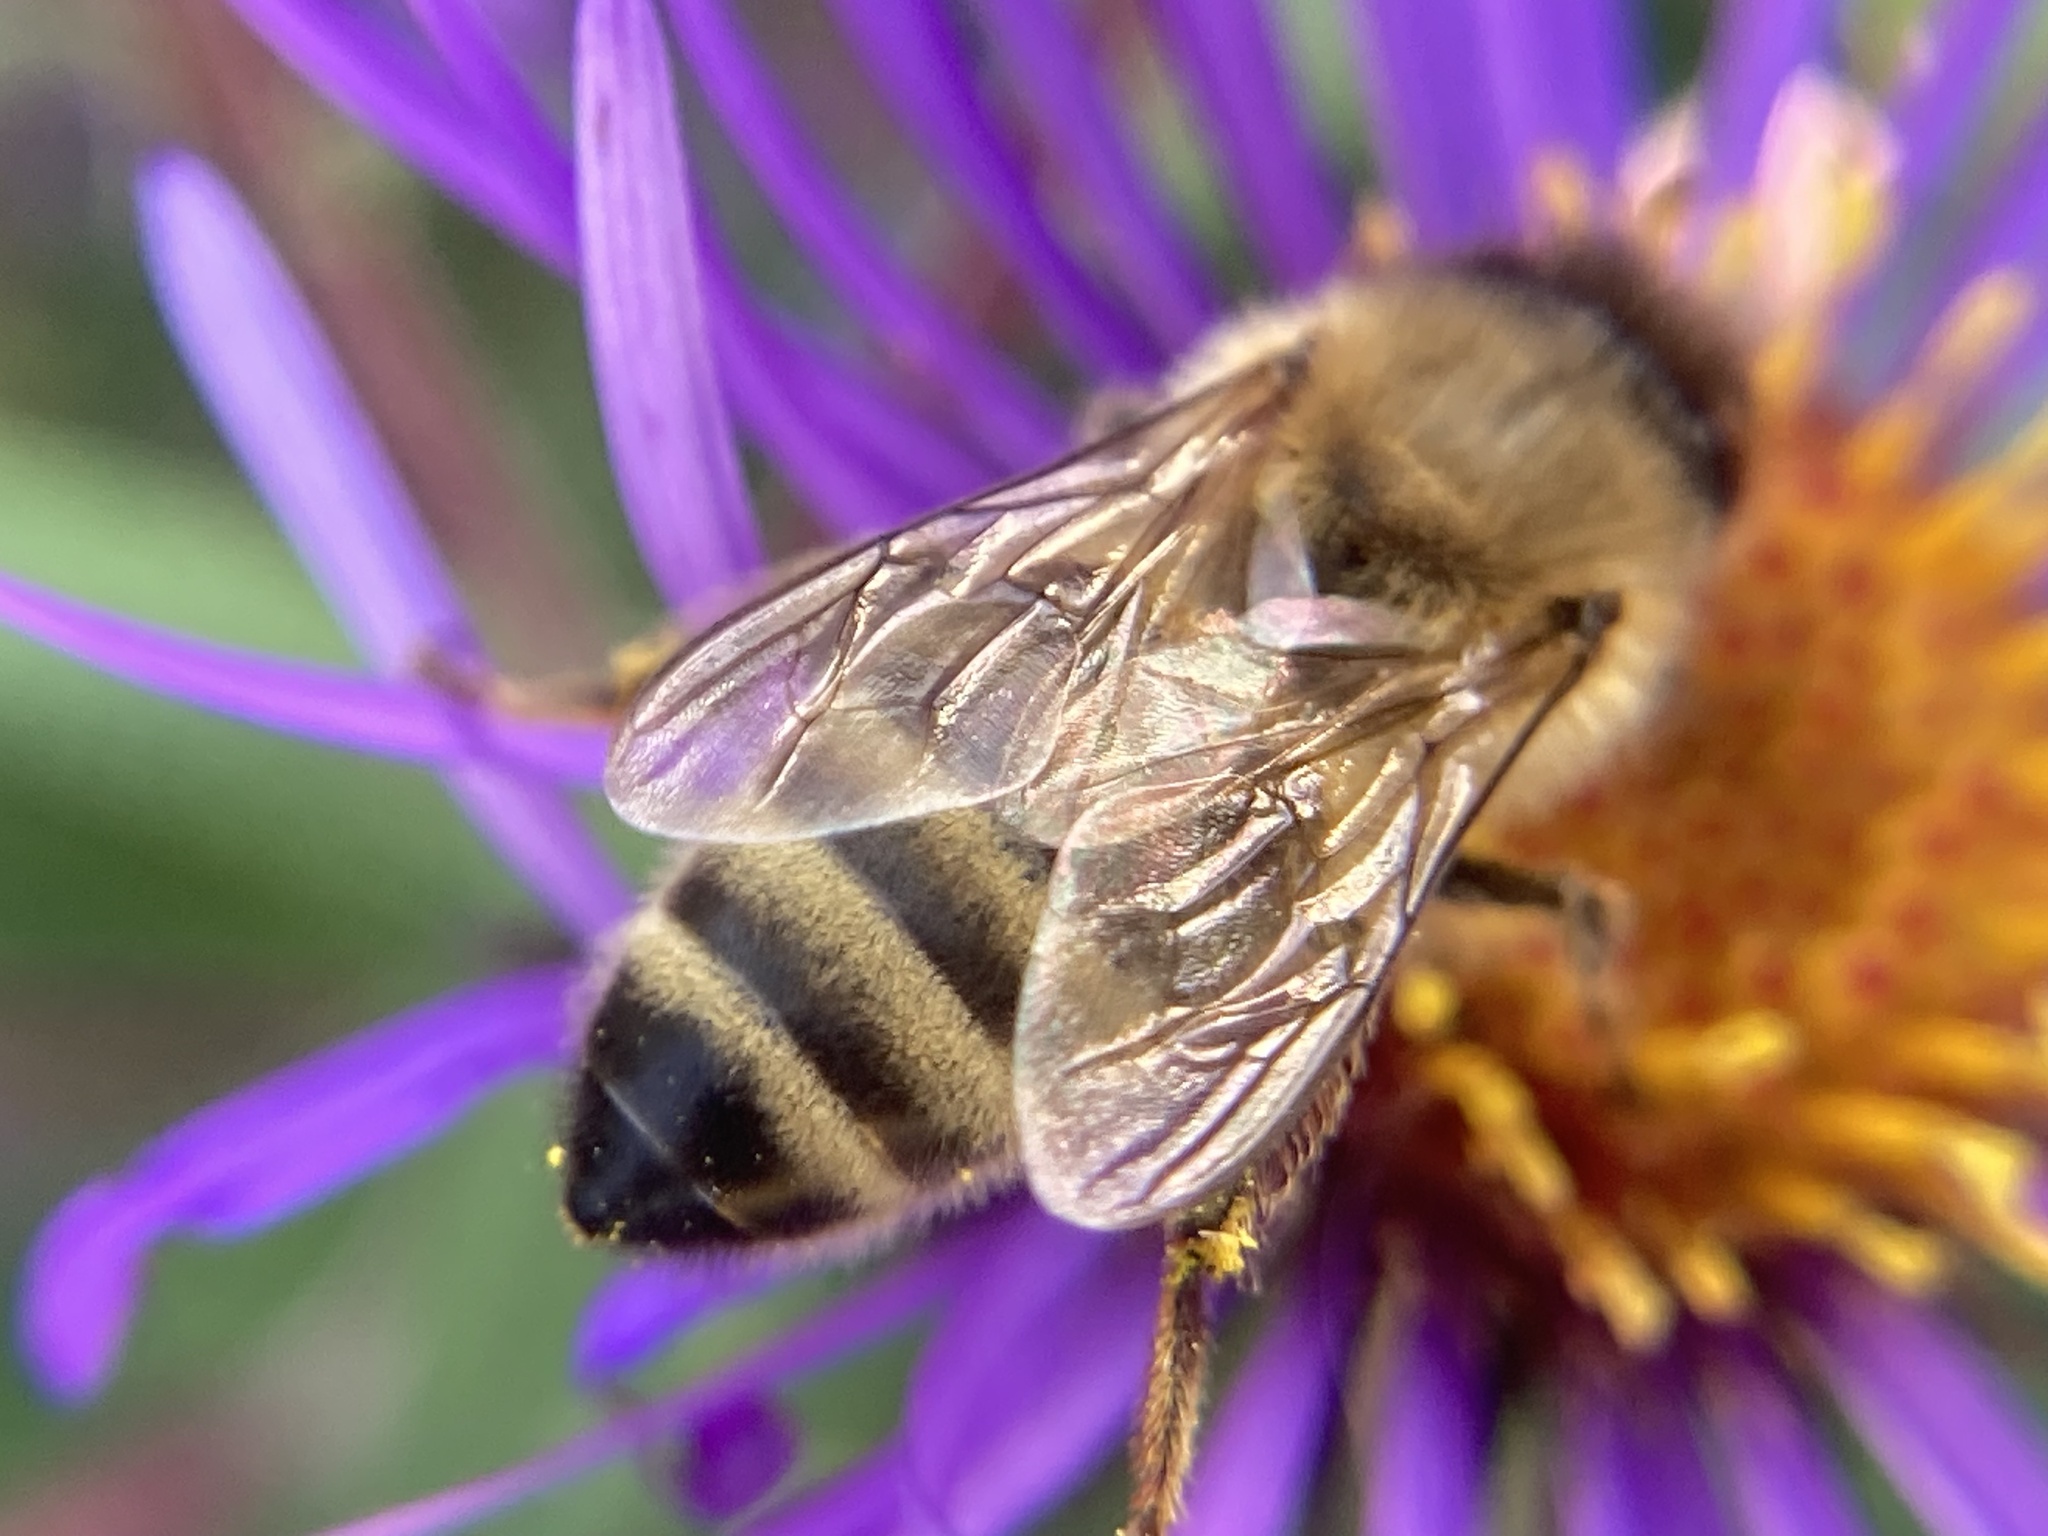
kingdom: Animalia
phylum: Arthropoda
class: Insecta
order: Hymenoptera
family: Apidae
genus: Apis
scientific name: Apis mellifera
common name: Honey bee
